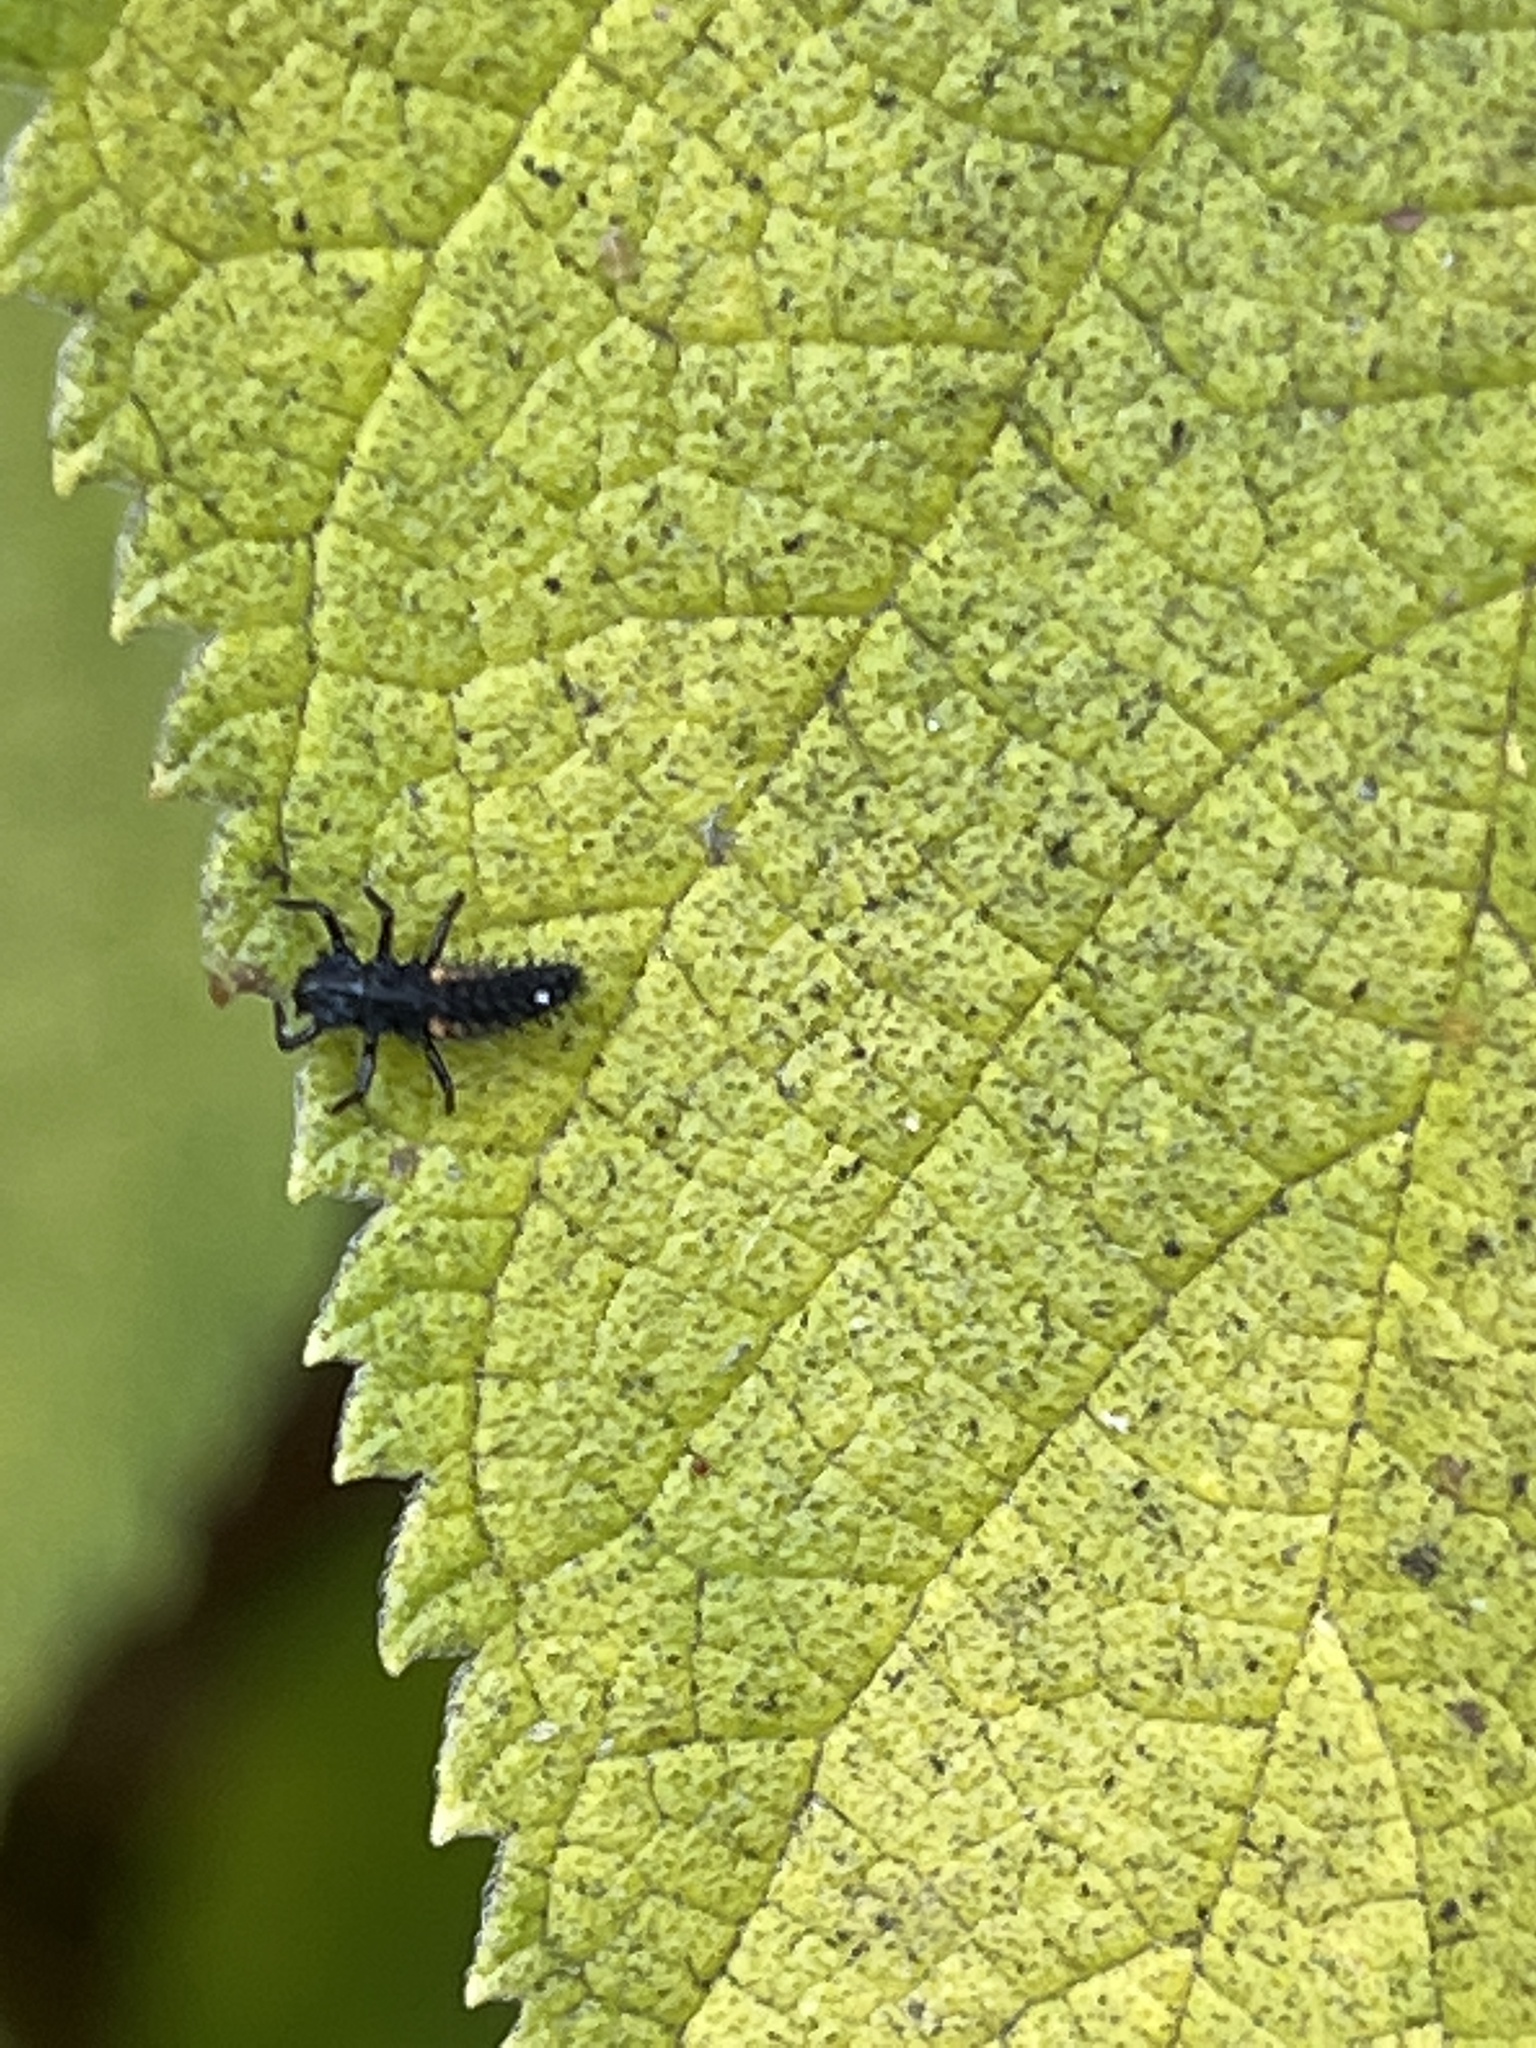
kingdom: Animalia
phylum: Arthropoda
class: Insecta
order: Coleoptera
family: Coccinellidae
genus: Harmonia
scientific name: Harmonia axyridis
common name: Harlequin ladybird
